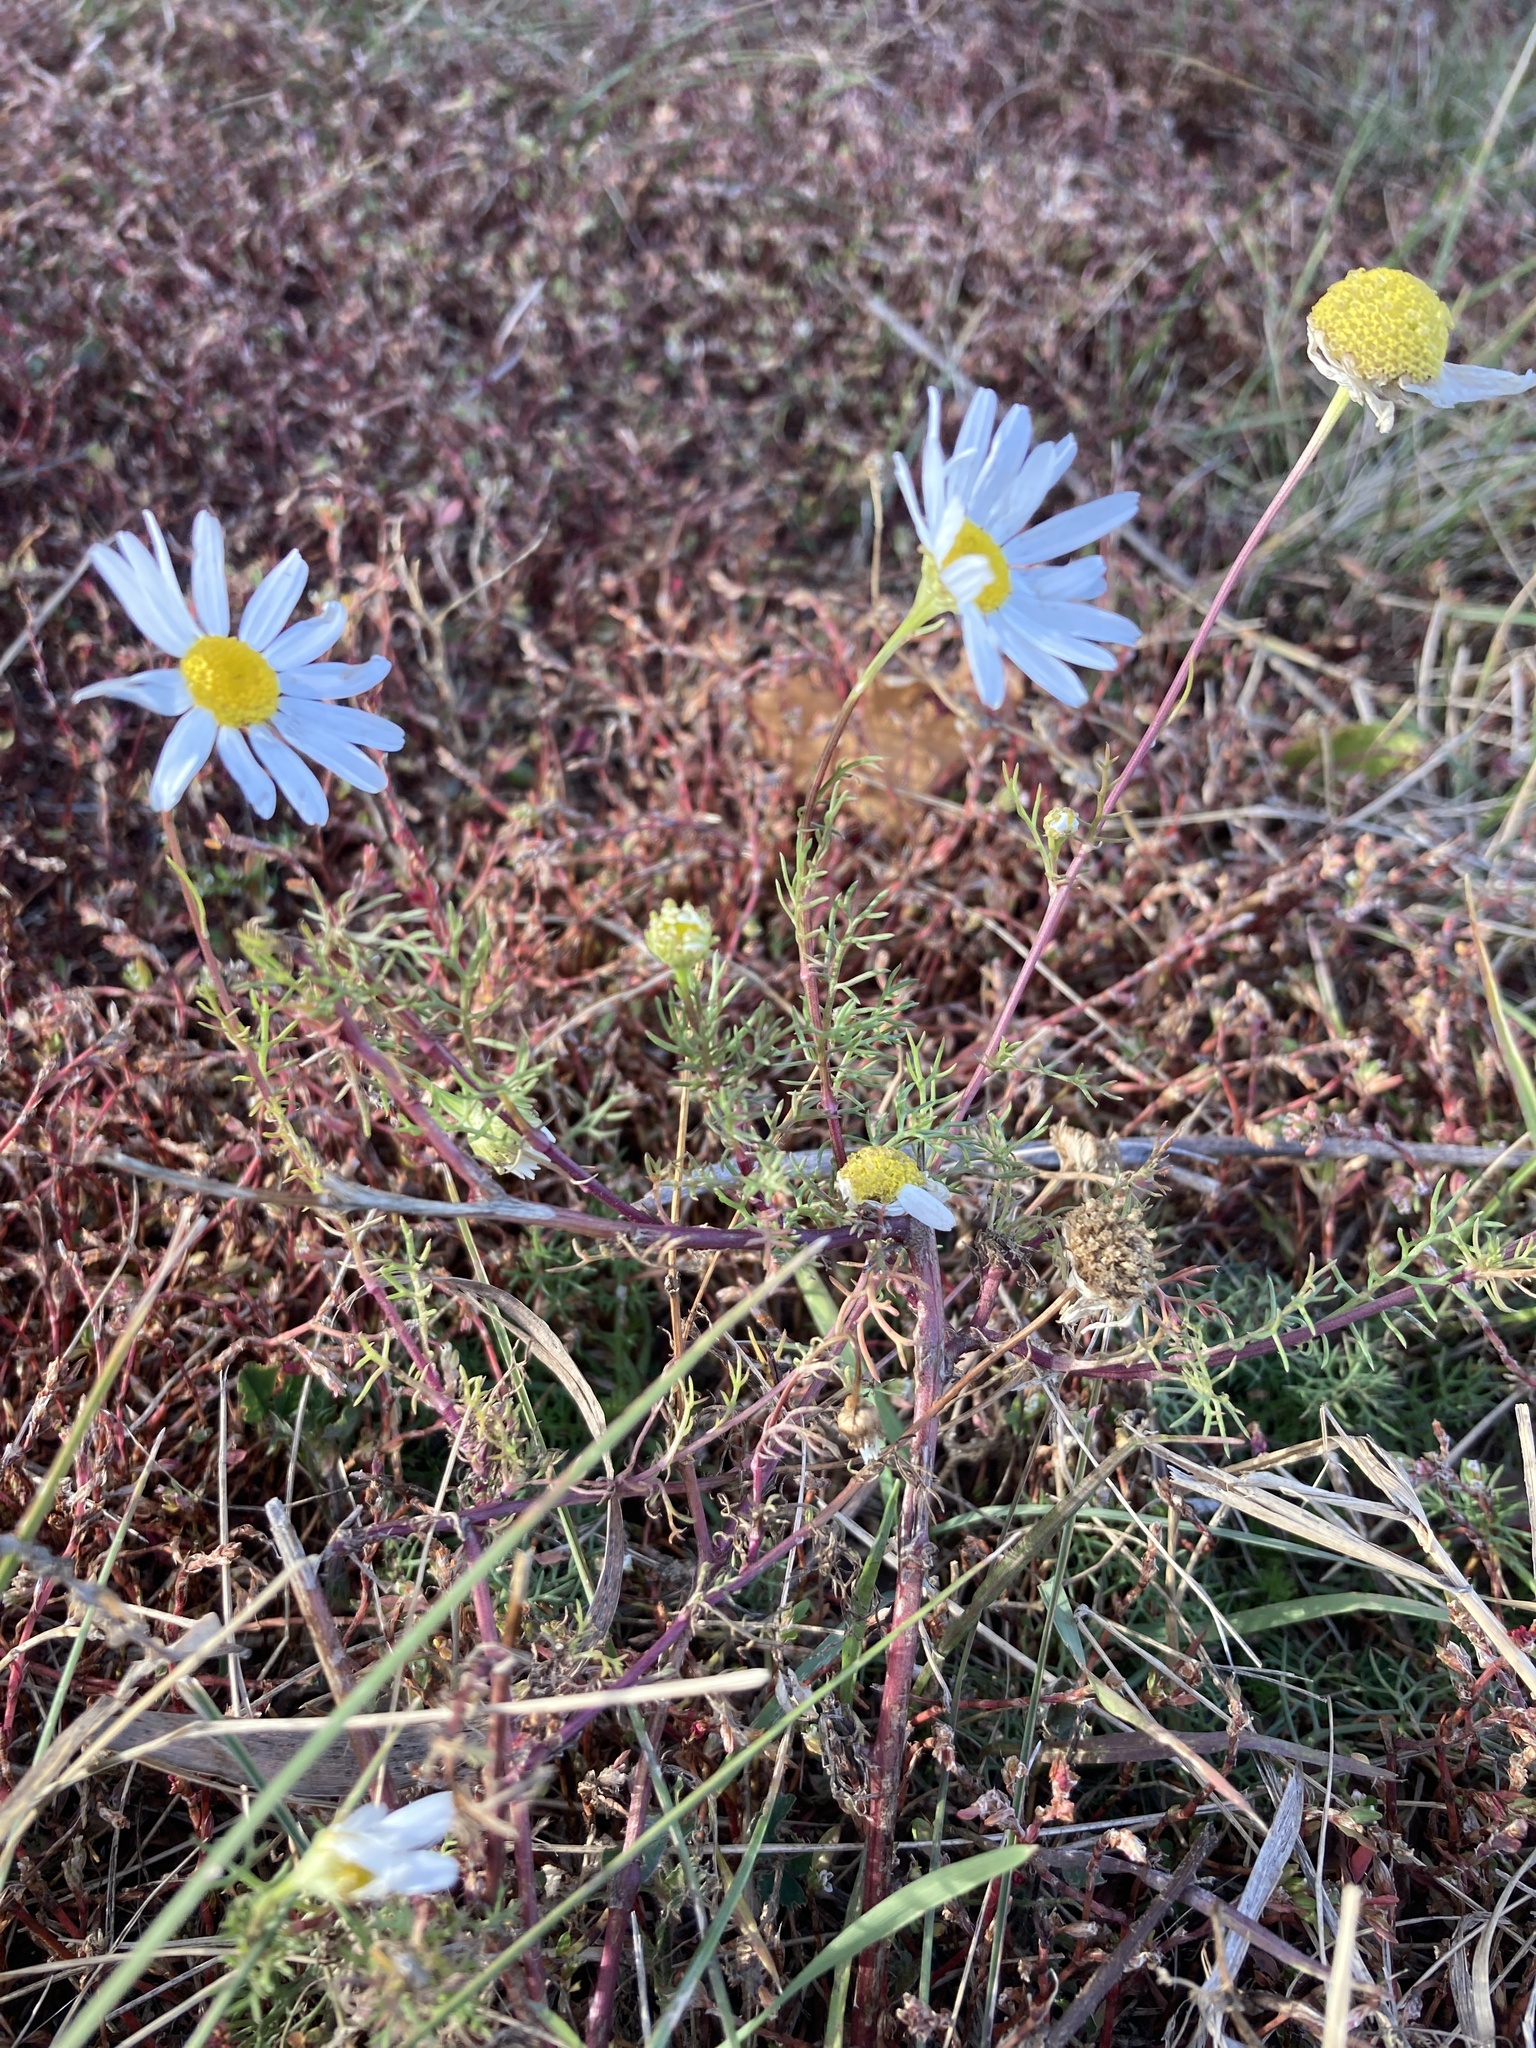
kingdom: Plantae
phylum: Tracheophyta
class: Magnoliopsida
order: Asterales
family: Asteraceae
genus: Tripleurospermum
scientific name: Tripleurospermum inodorum
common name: Scentless mayweed
